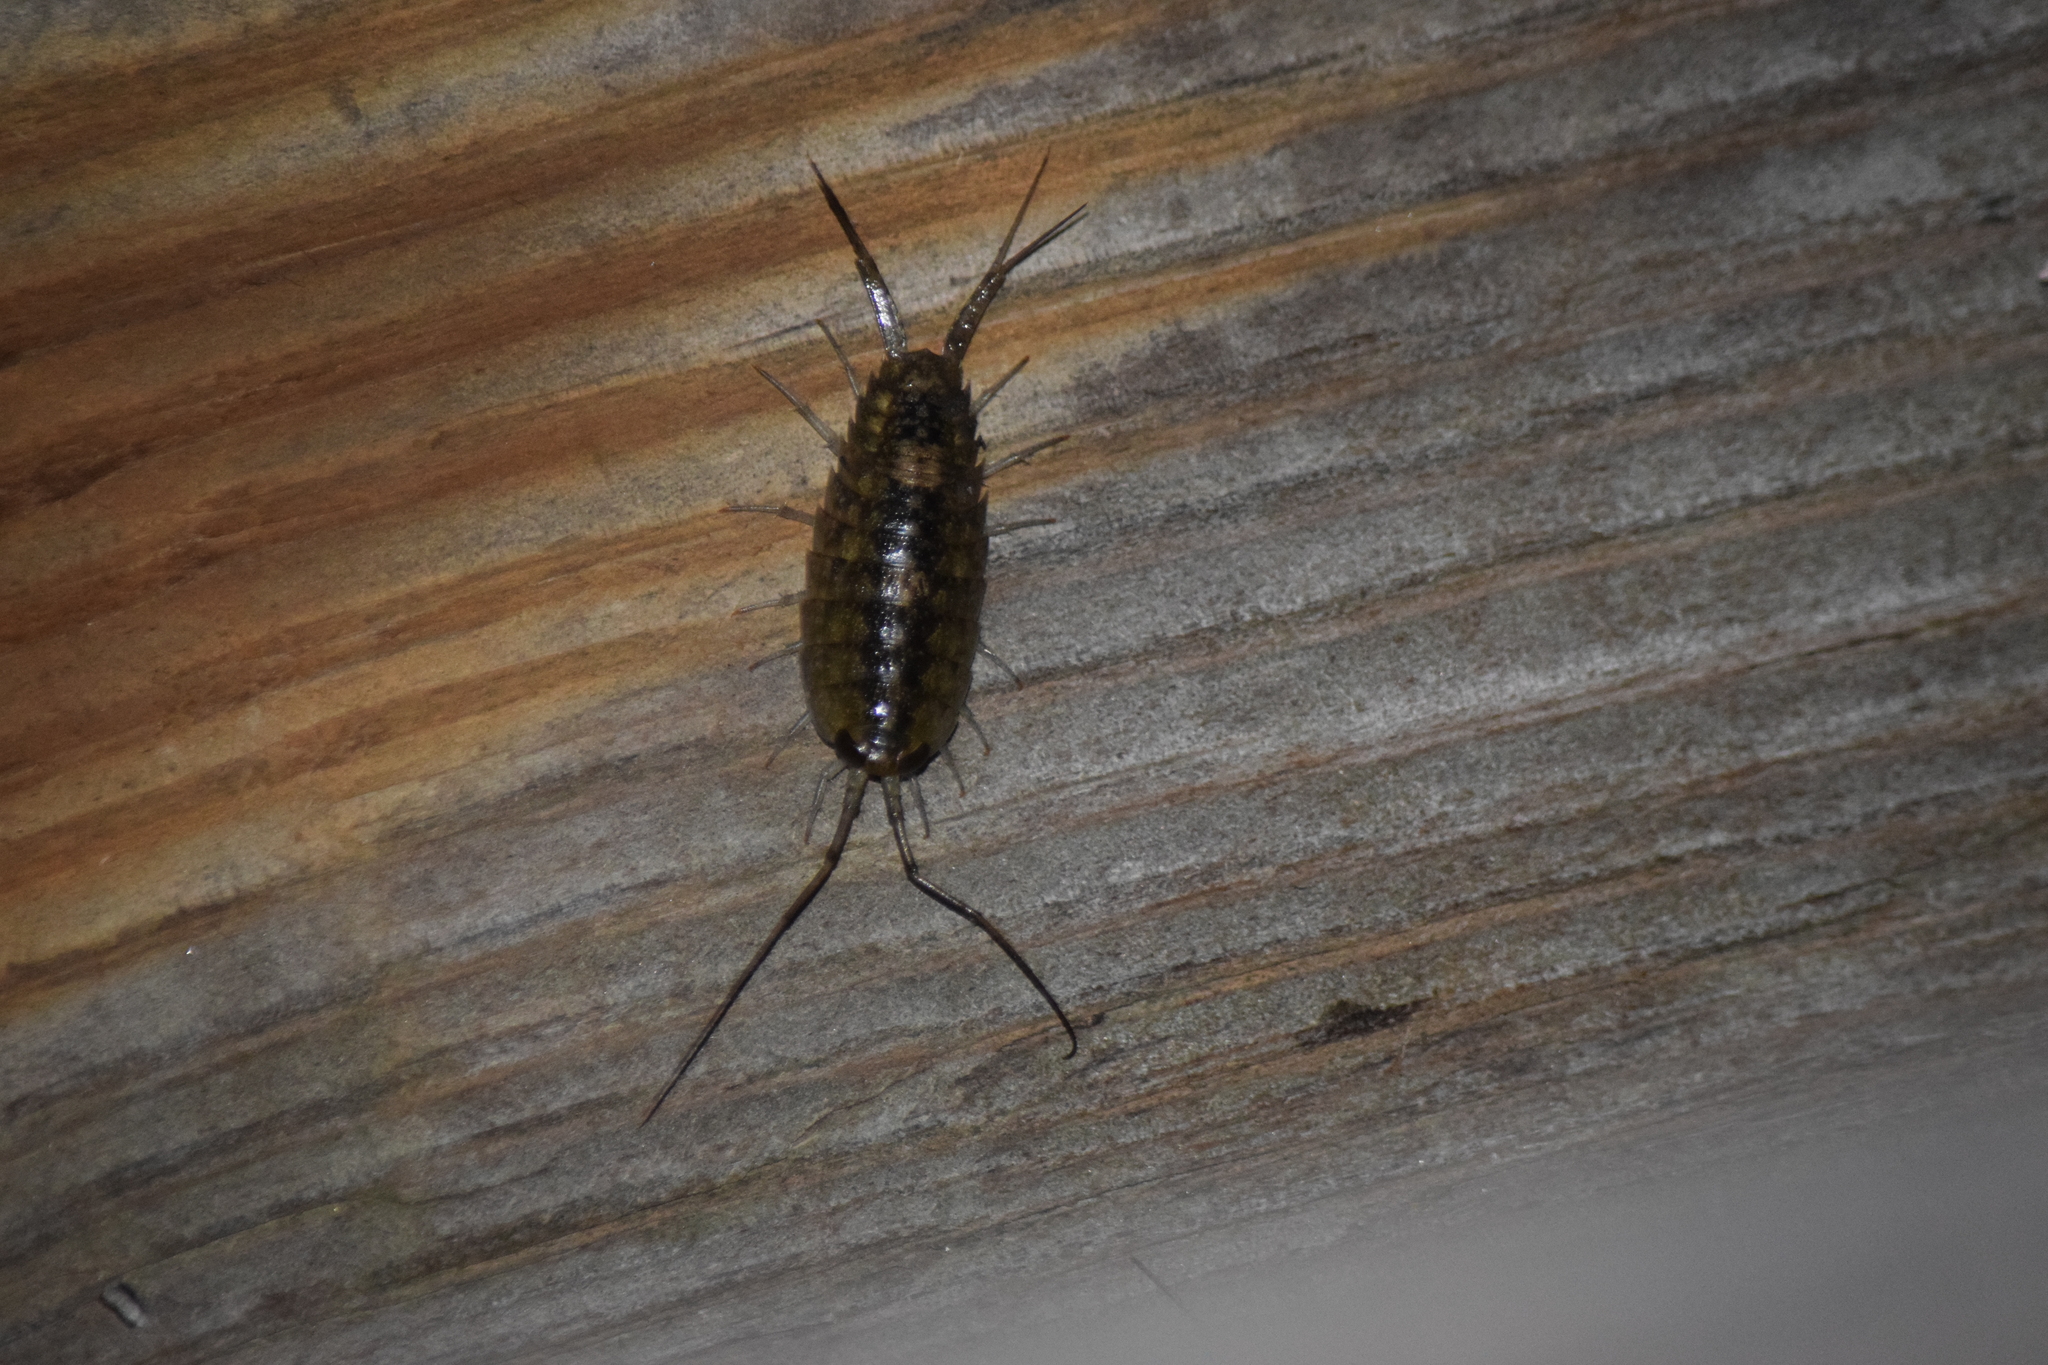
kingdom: Animalia
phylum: Arthropoda
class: Malacostraca
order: Isopoda
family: Ligiidae
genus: Ligia
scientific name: Ligia exotica
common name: Wharf roach
